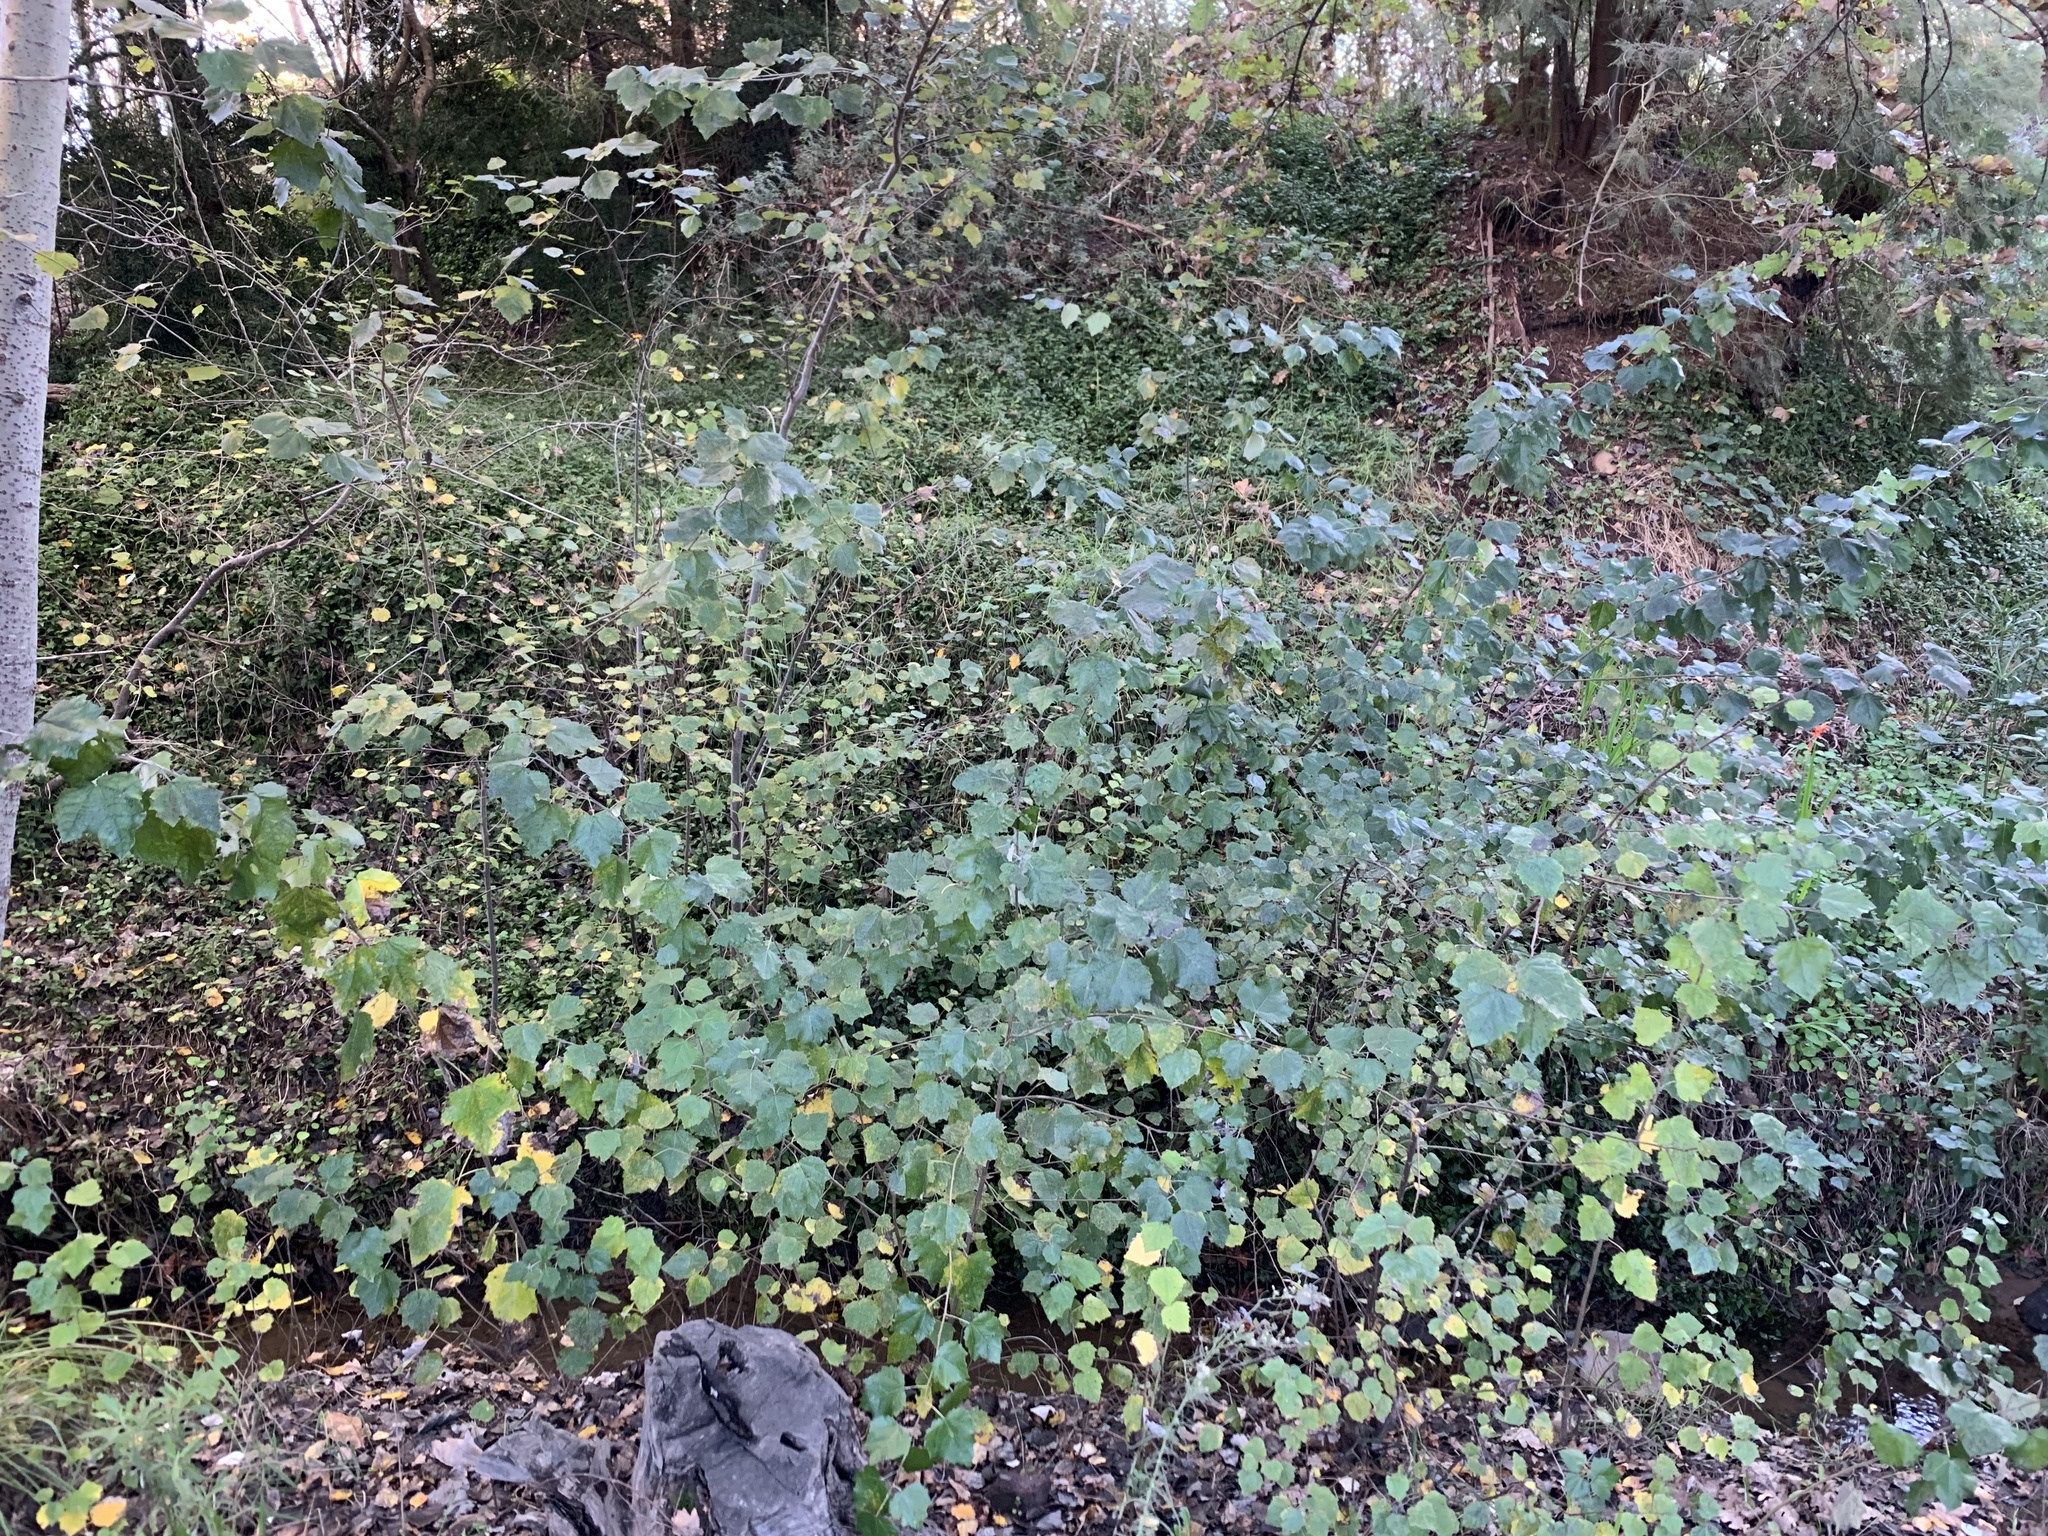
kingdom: Plantae
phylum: Tracheophyta
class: Magnoliopsida
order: Malpighiales
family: Salicaceae
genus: Populus
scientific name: Populus canescens
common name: Gray poplar
